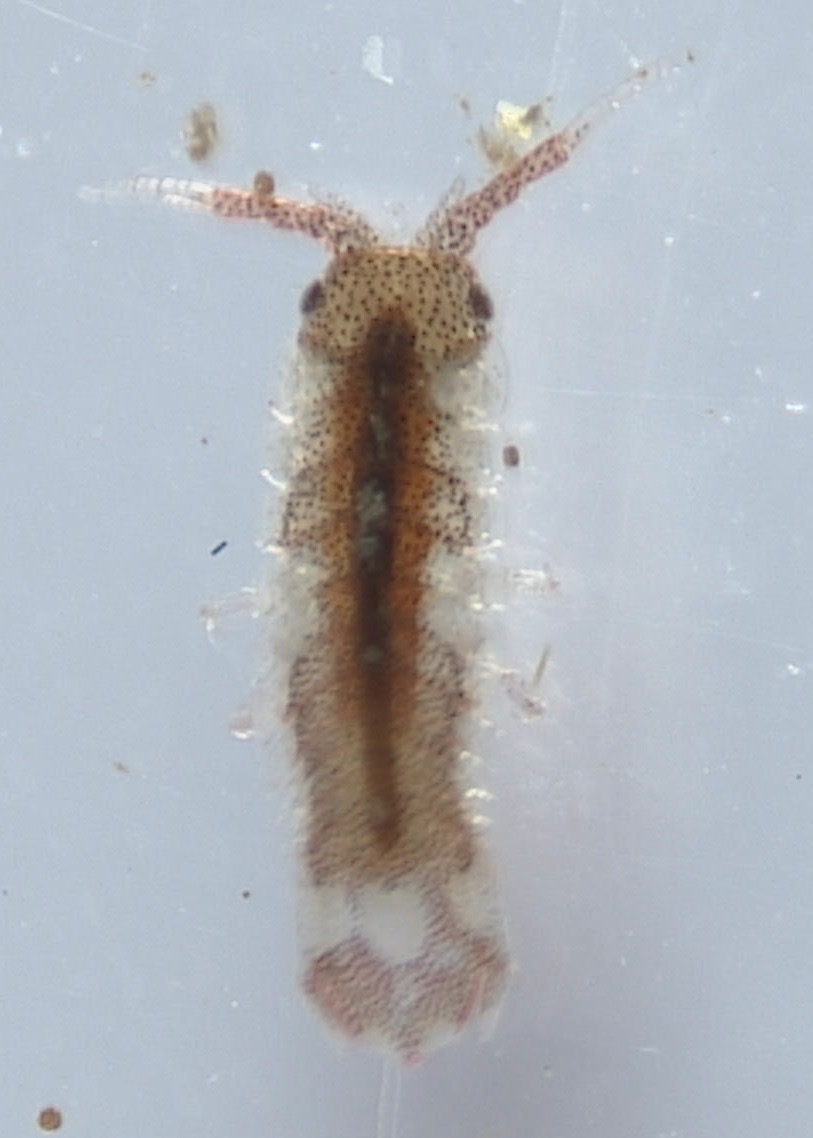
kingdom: Animalia
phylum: Arthropoda
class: Malacostraca
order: Isopoda
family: Idoteidae
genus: Idotea
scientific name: Idotea balthica
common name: Baltic isopod
